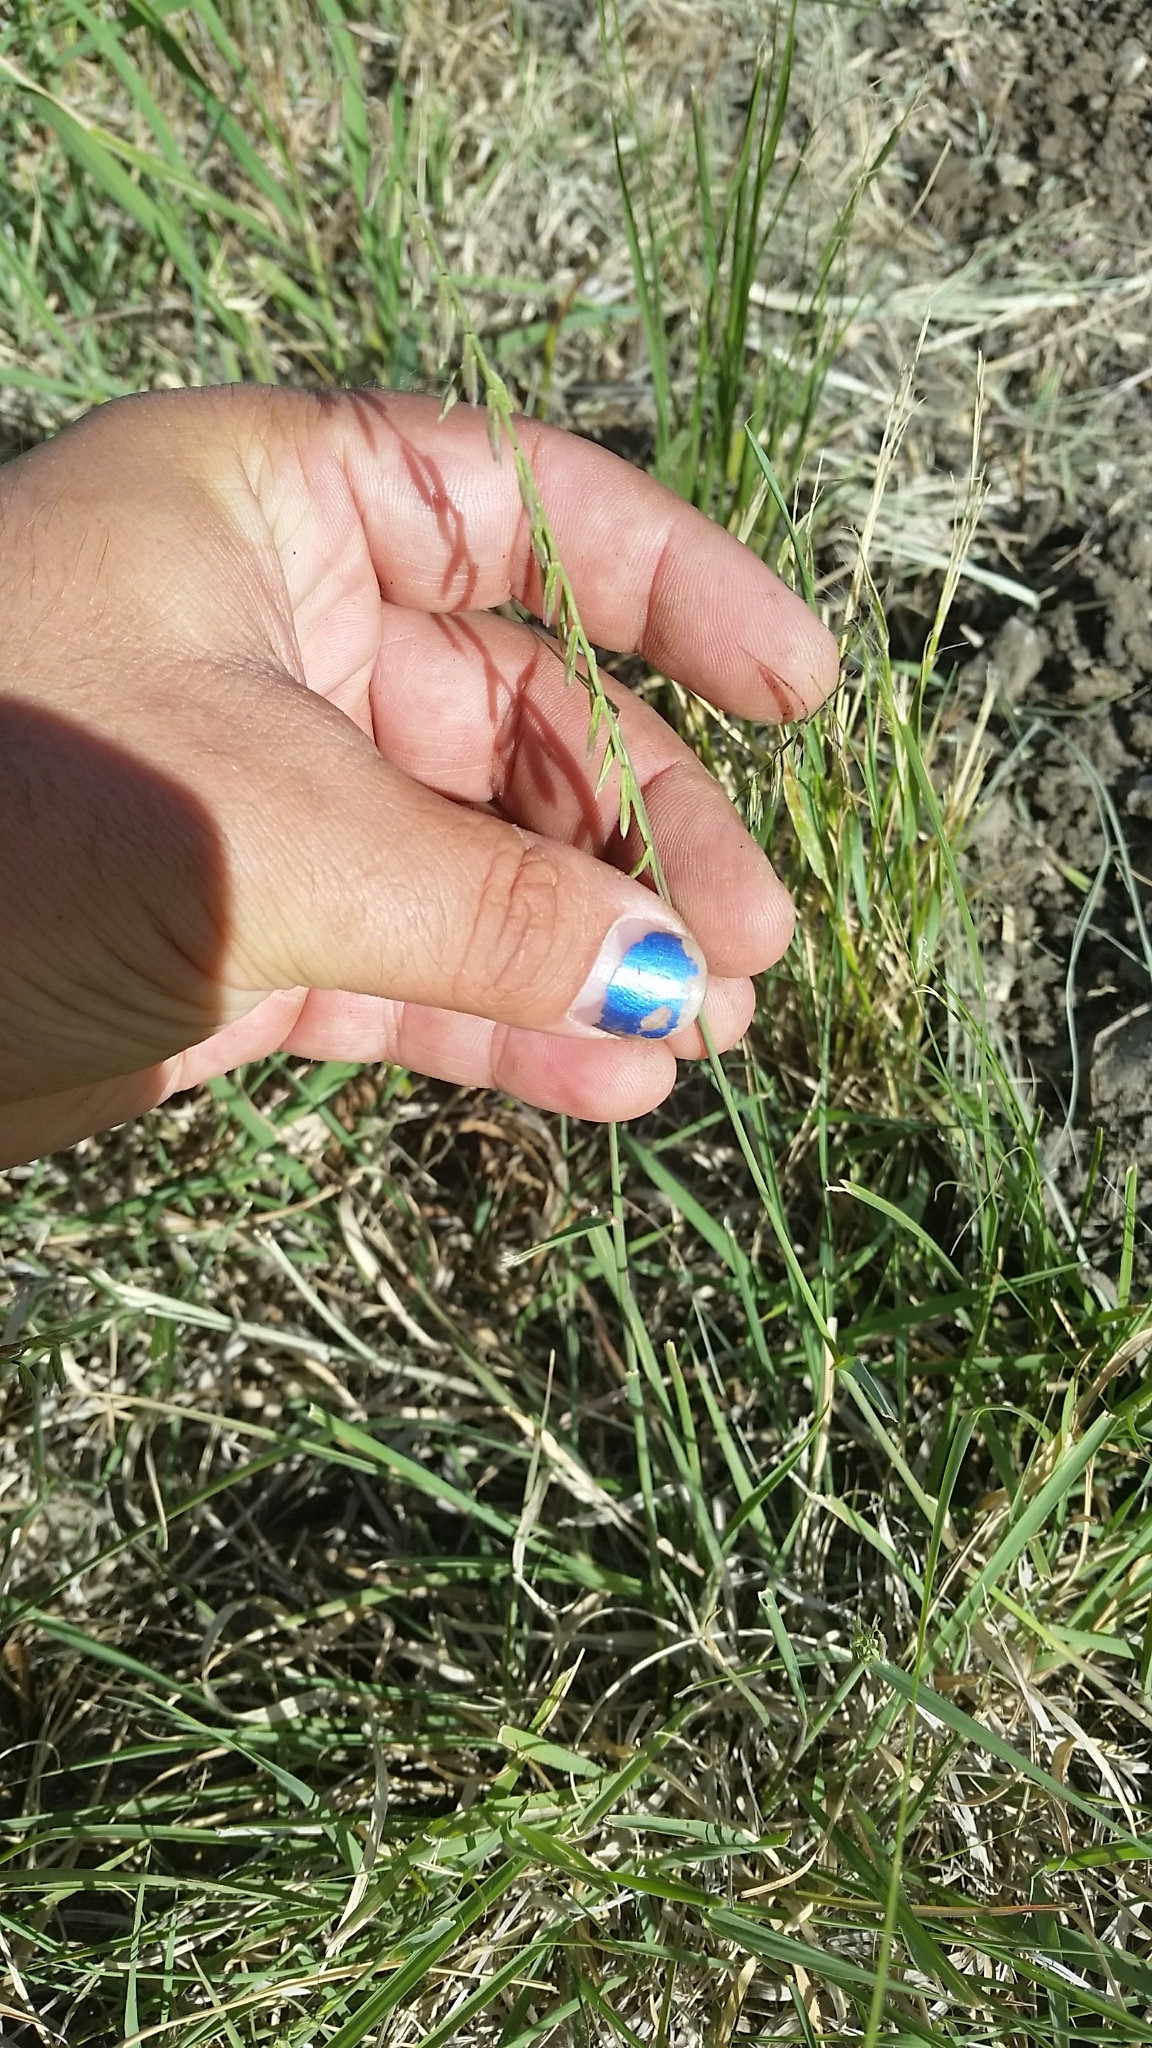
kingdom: Plantae
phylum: Tracheophyta
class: Liliopsida
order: Poales
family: Poaceae
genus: Bouteloua
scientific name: Bouteloua curtipendula
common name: Side-oats grama
